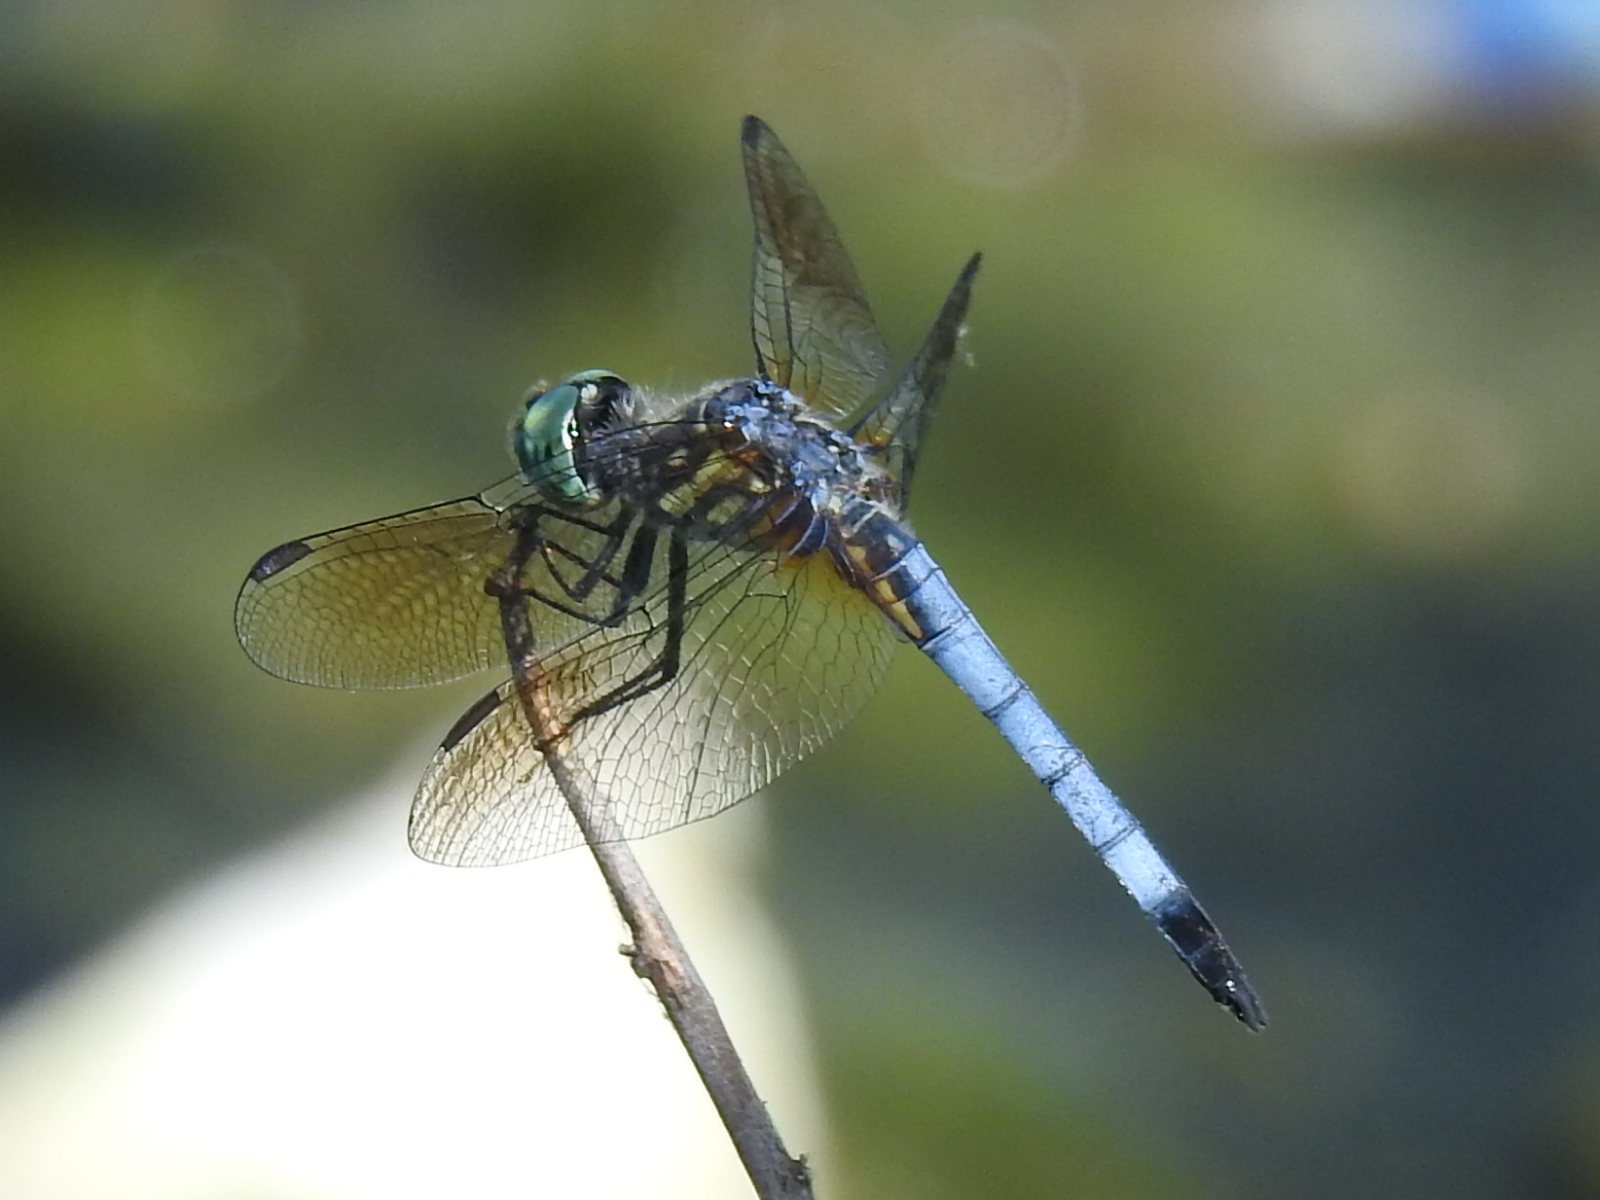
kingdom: Animalia
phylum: Arthropoda
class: Insecta
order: Odonata
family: Libellulidae
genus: Pachydiplax
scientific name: Pachydiplax longipennis
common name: Blue dasher
